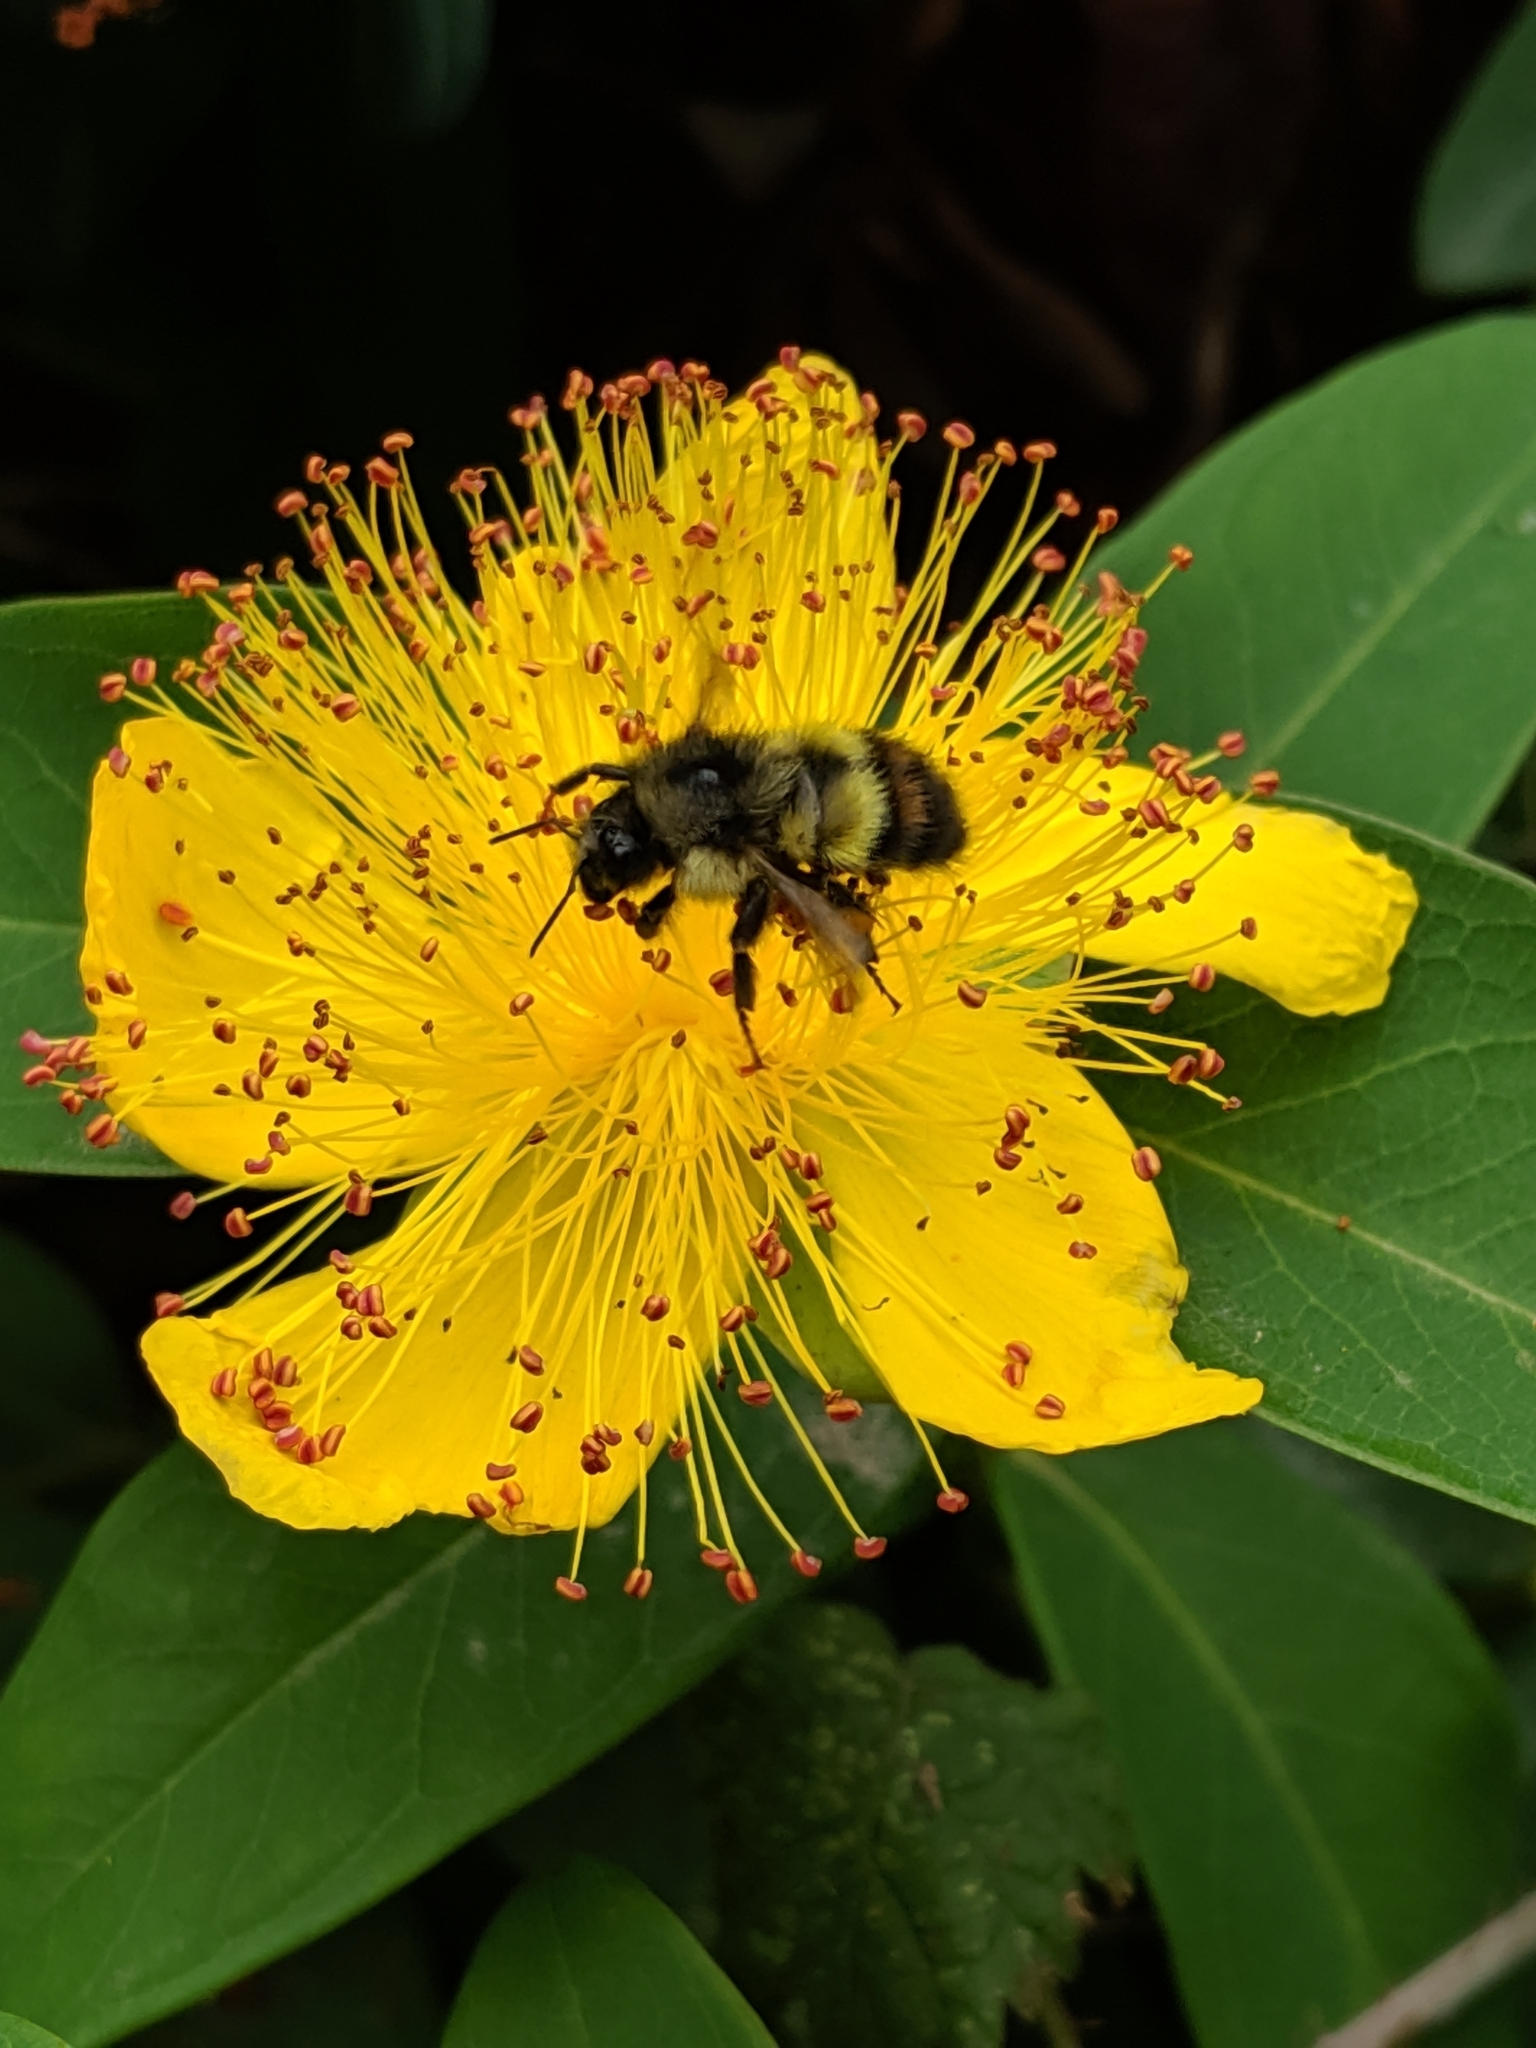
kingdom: Animalia
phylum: Arthropoda
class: Insecta
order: Hymenoptera
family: Apidae
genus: Bombus
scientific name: Bombus flavifrons
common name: Yellow head bumble bee
